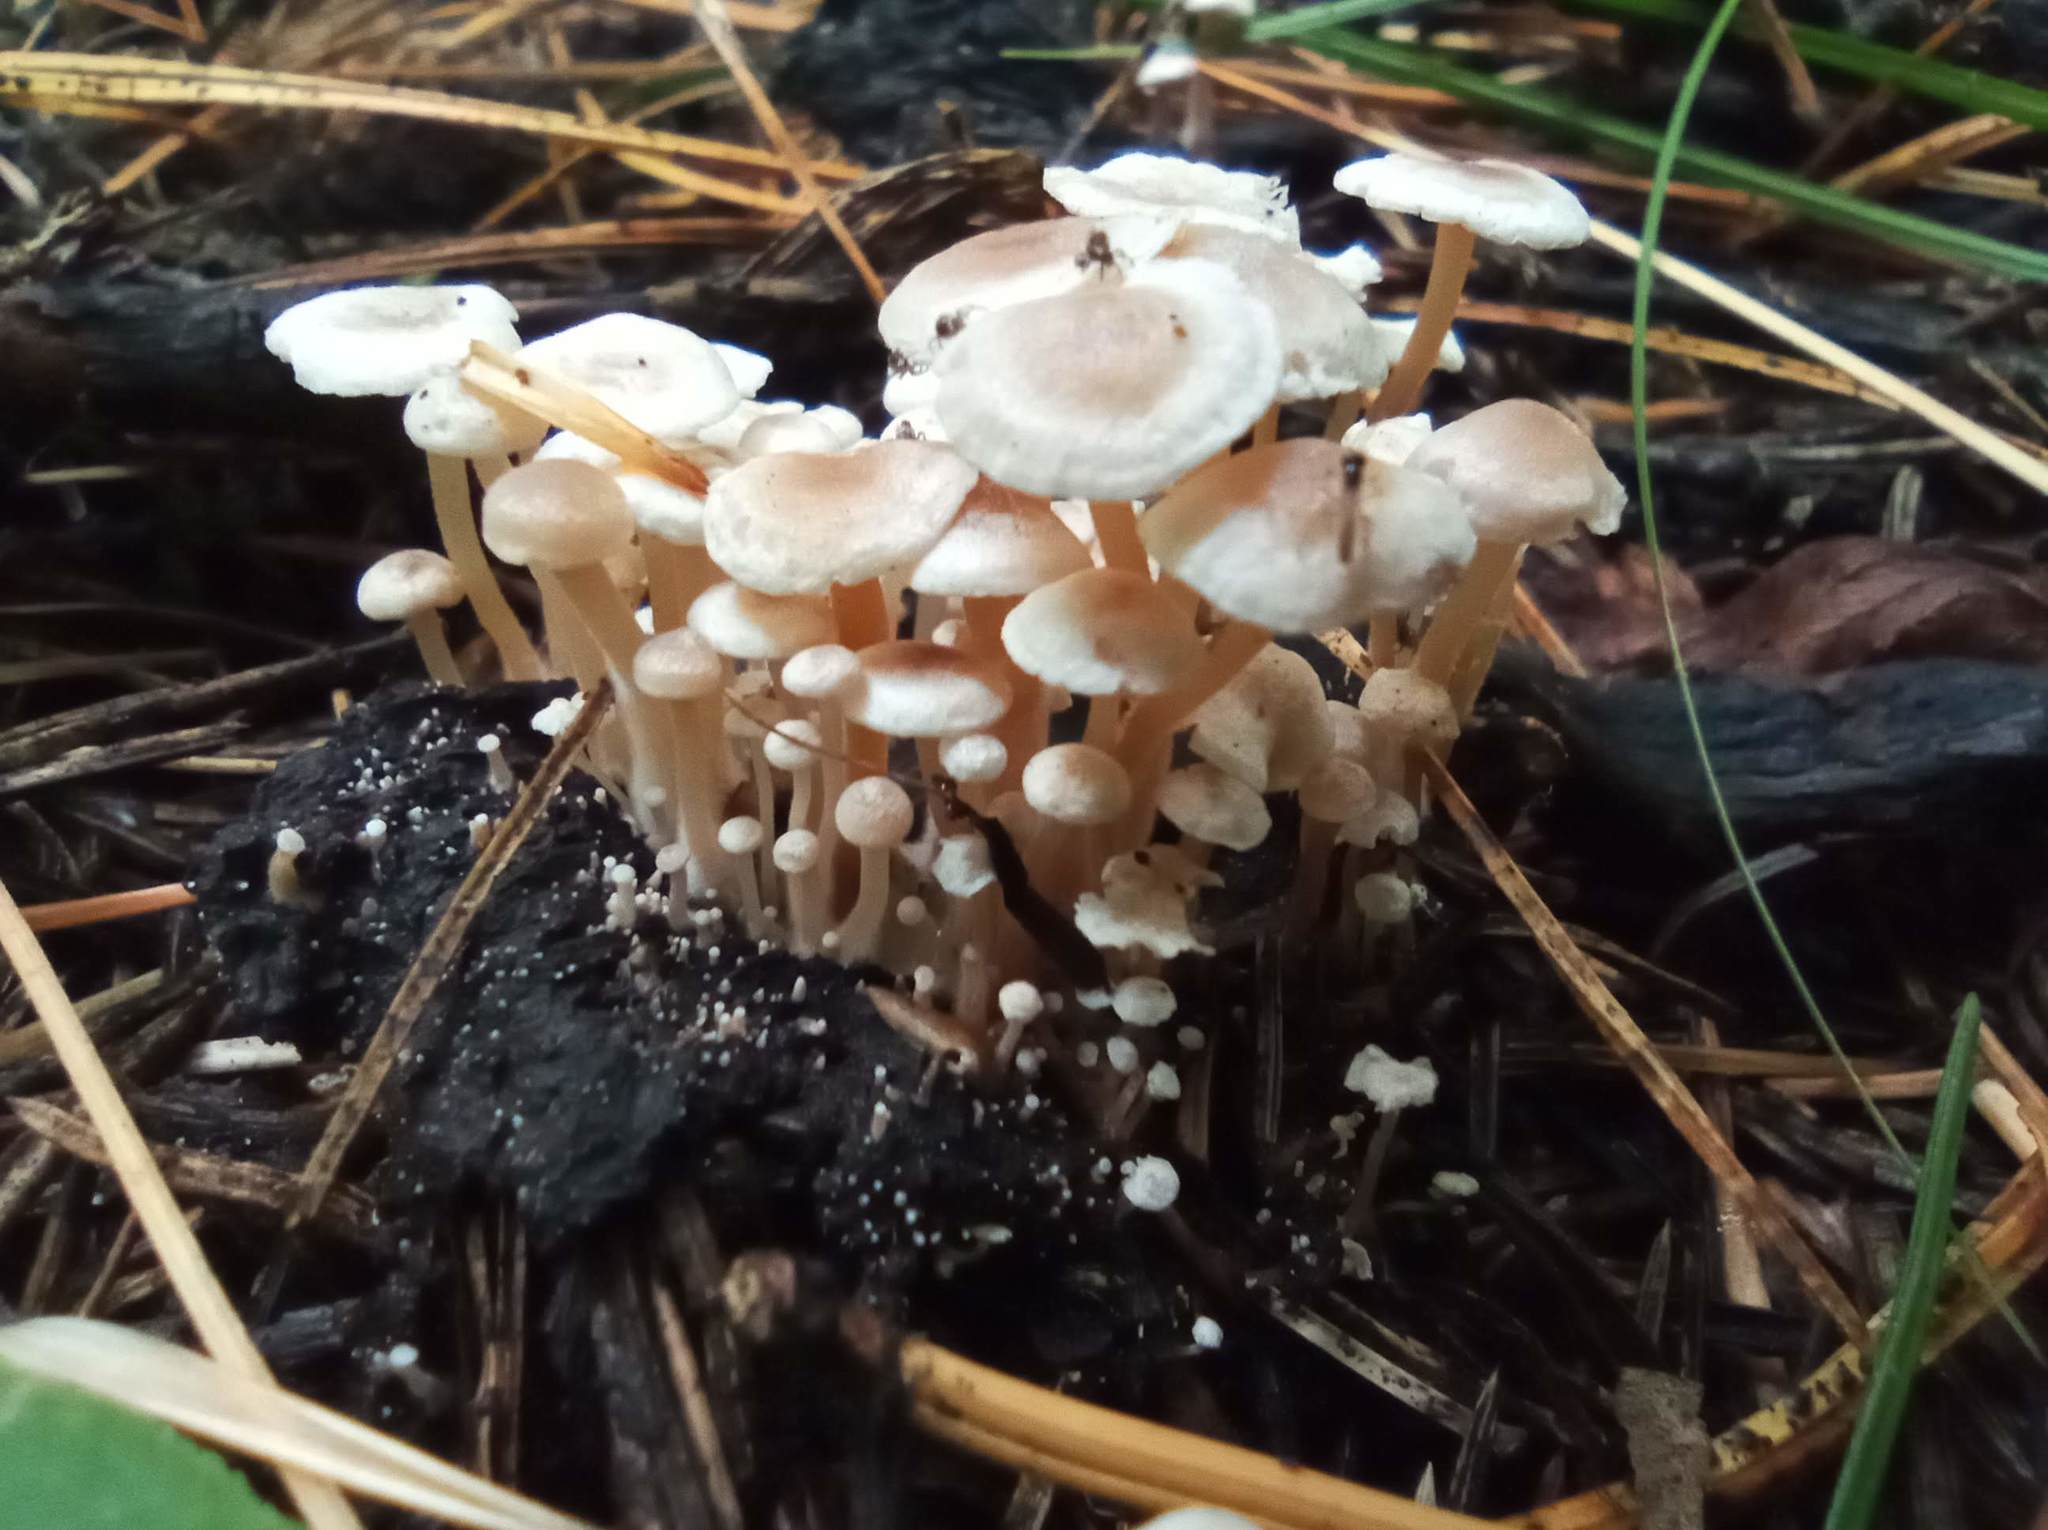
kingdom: Fungi
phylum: Basidiomycota
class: Agaricomycetes
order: Agaricales
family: Tricholomataceae
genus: Collybia
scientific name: Collybia cirrhata
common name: Piggyback shanklet
